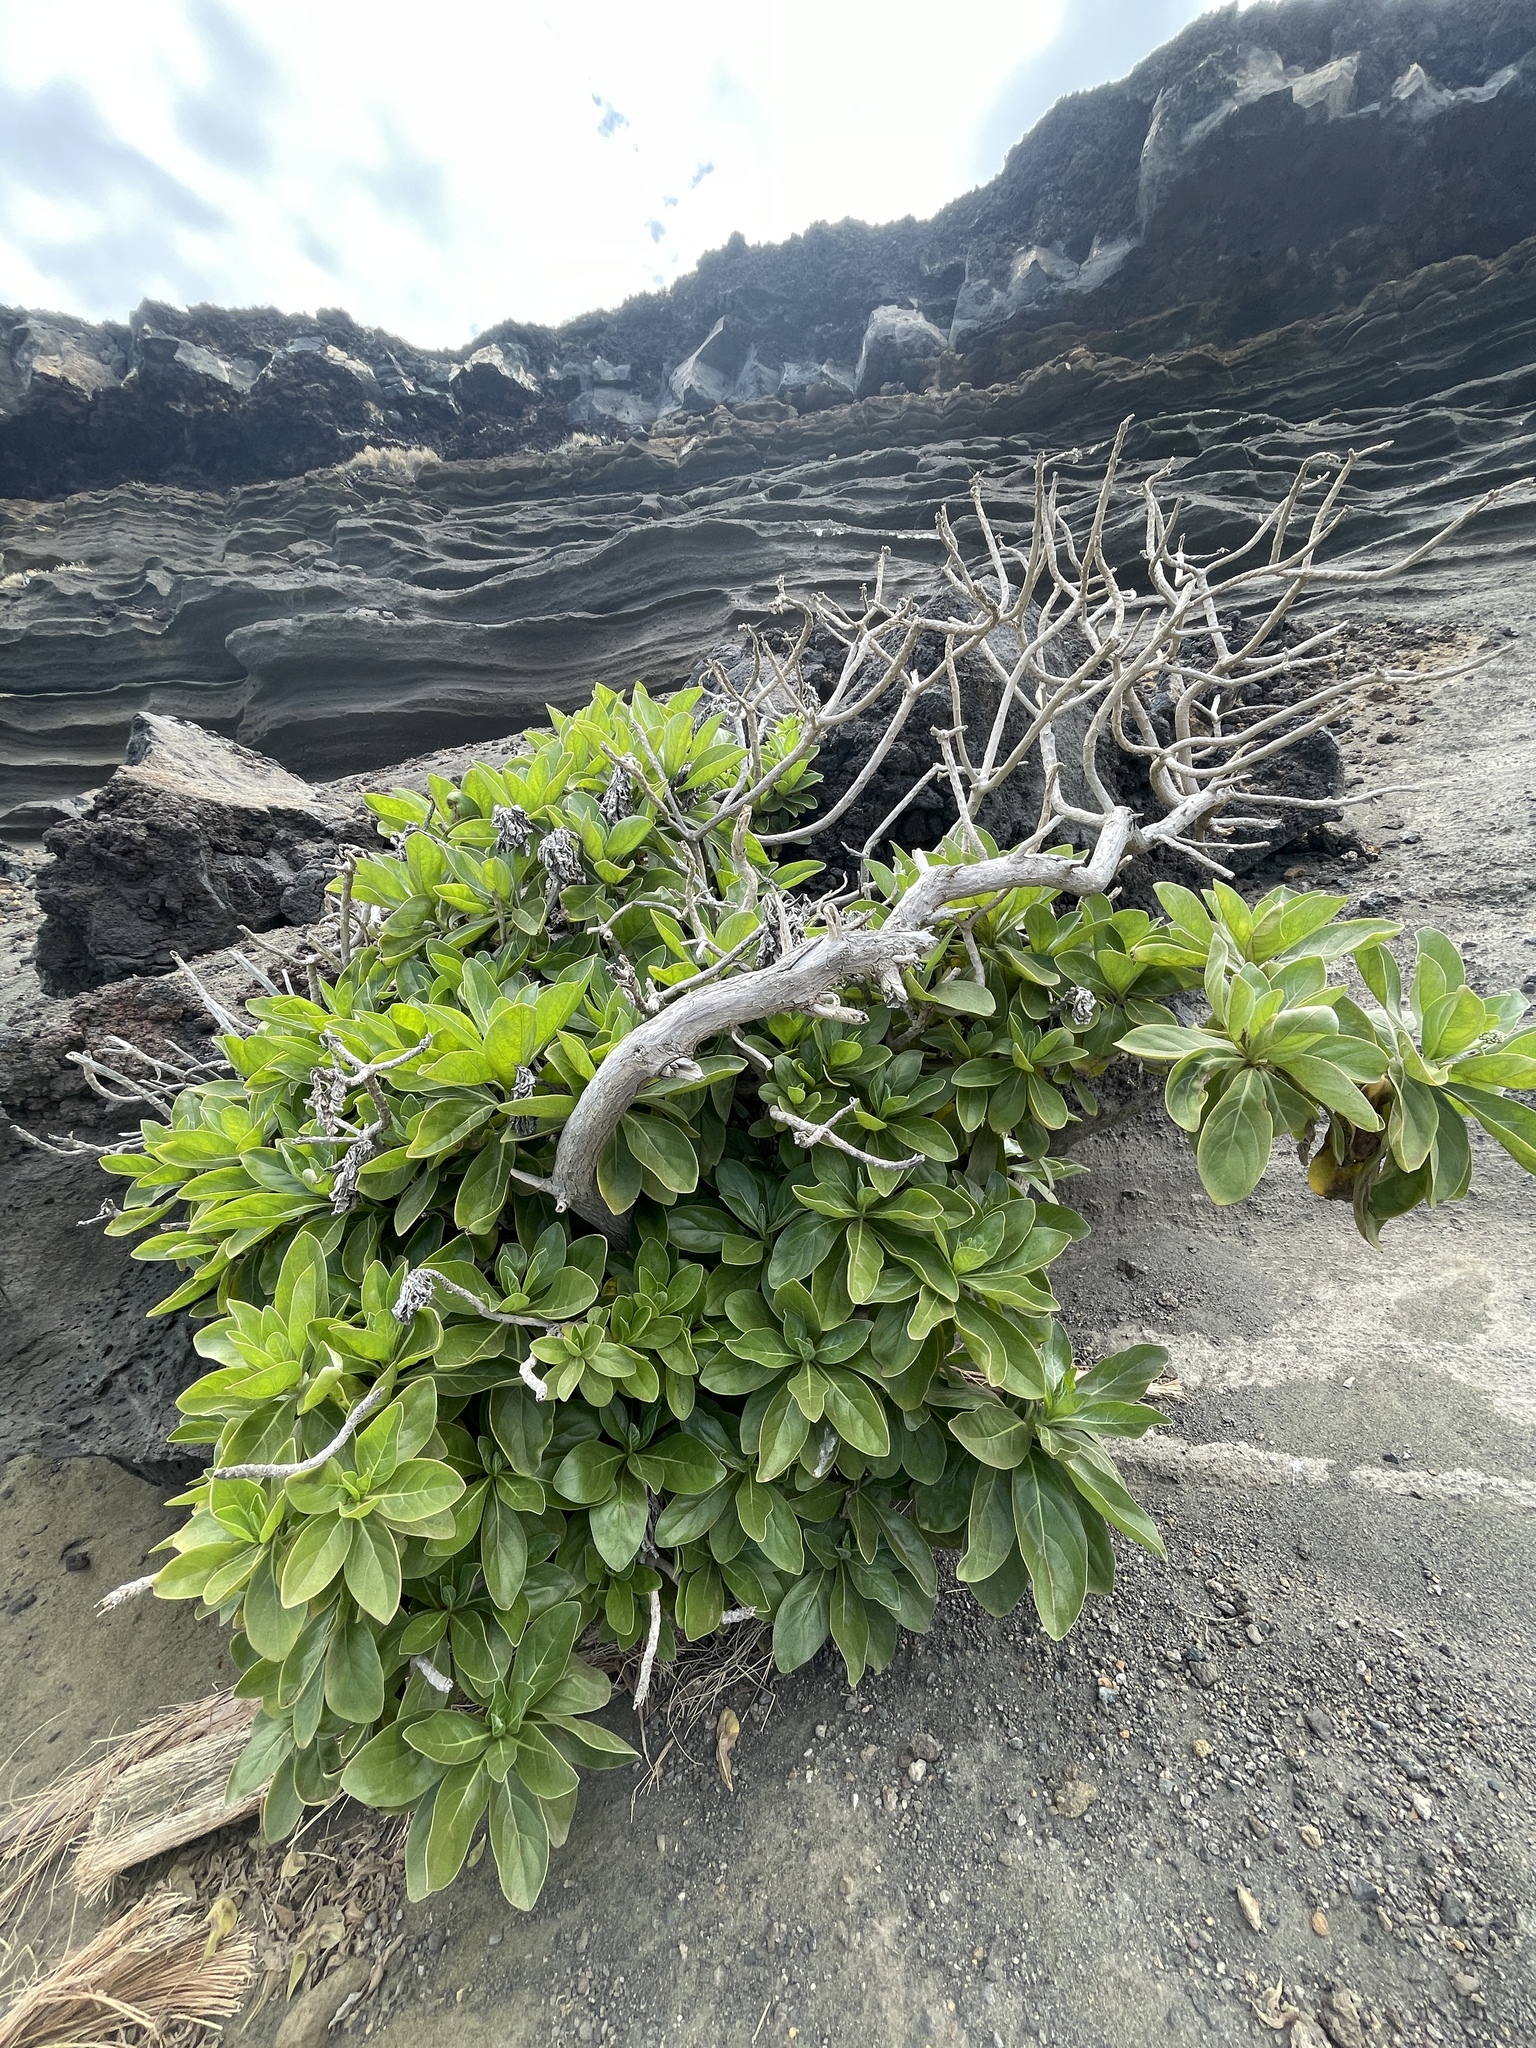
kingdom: Plantae
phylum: Tracheophyta
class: Magnoliopsida
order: Boraginales
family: Heliotropiaceae
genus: Heliotropium
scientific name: Heliotropium velutinum
